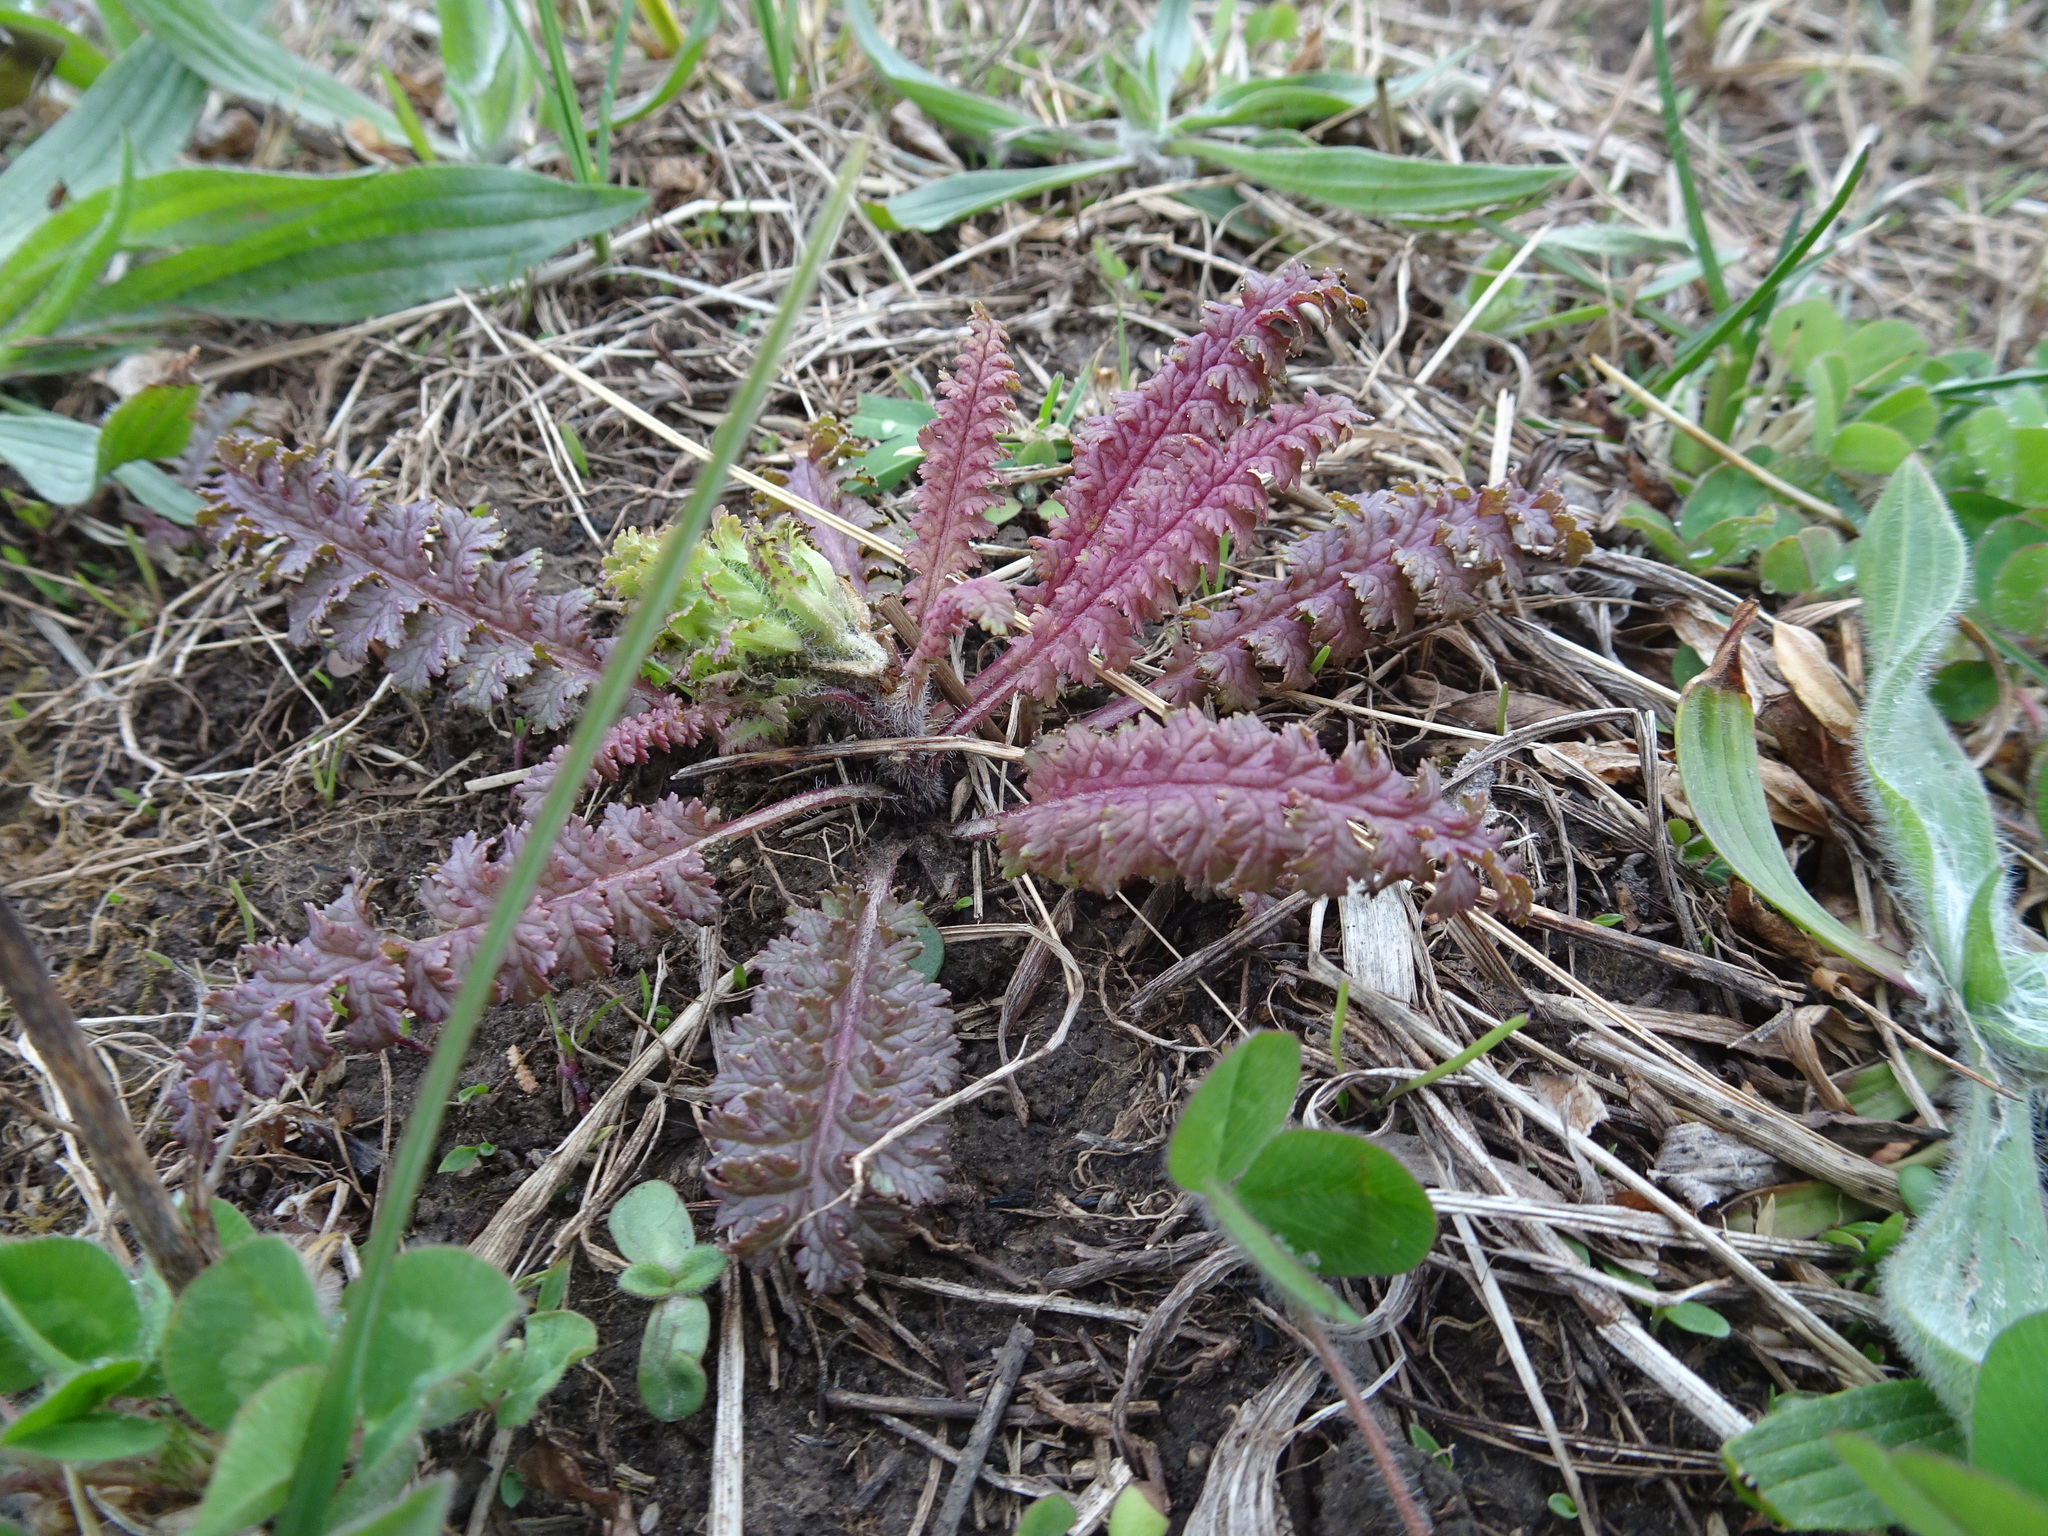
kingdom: Plantae
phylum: Tracheophyta
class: Magnoliopsida
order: Lamiales
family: Orobanchaceae
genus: Pedicularis
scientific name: Pedicularis canadensis
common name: Early lousewort
